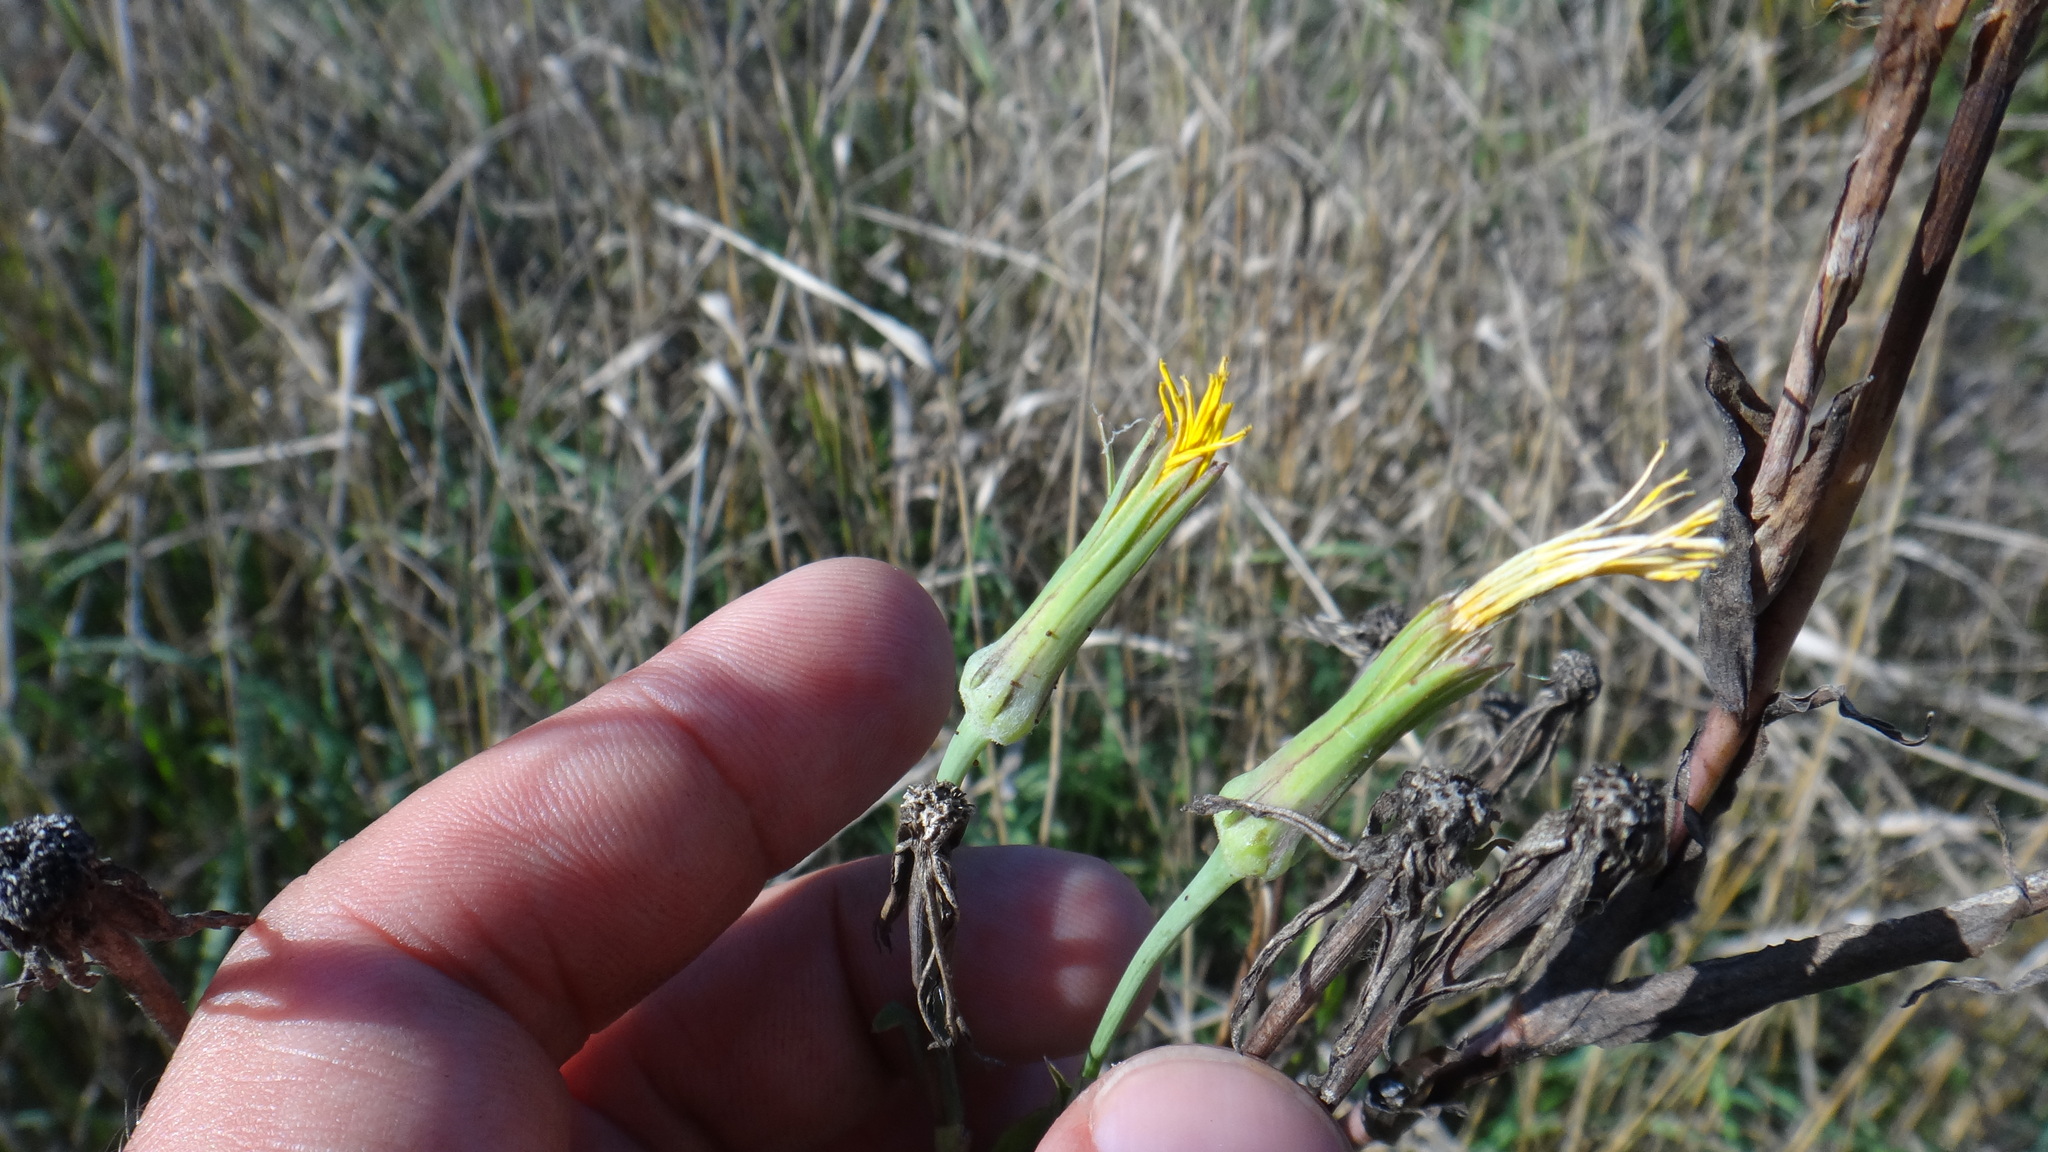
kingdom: Plantae
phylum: Tracheophyta
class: Magnoliopsida
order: Asterales
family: Asteraceae
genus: Tragopogon
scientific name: Tragopogon orientalis
